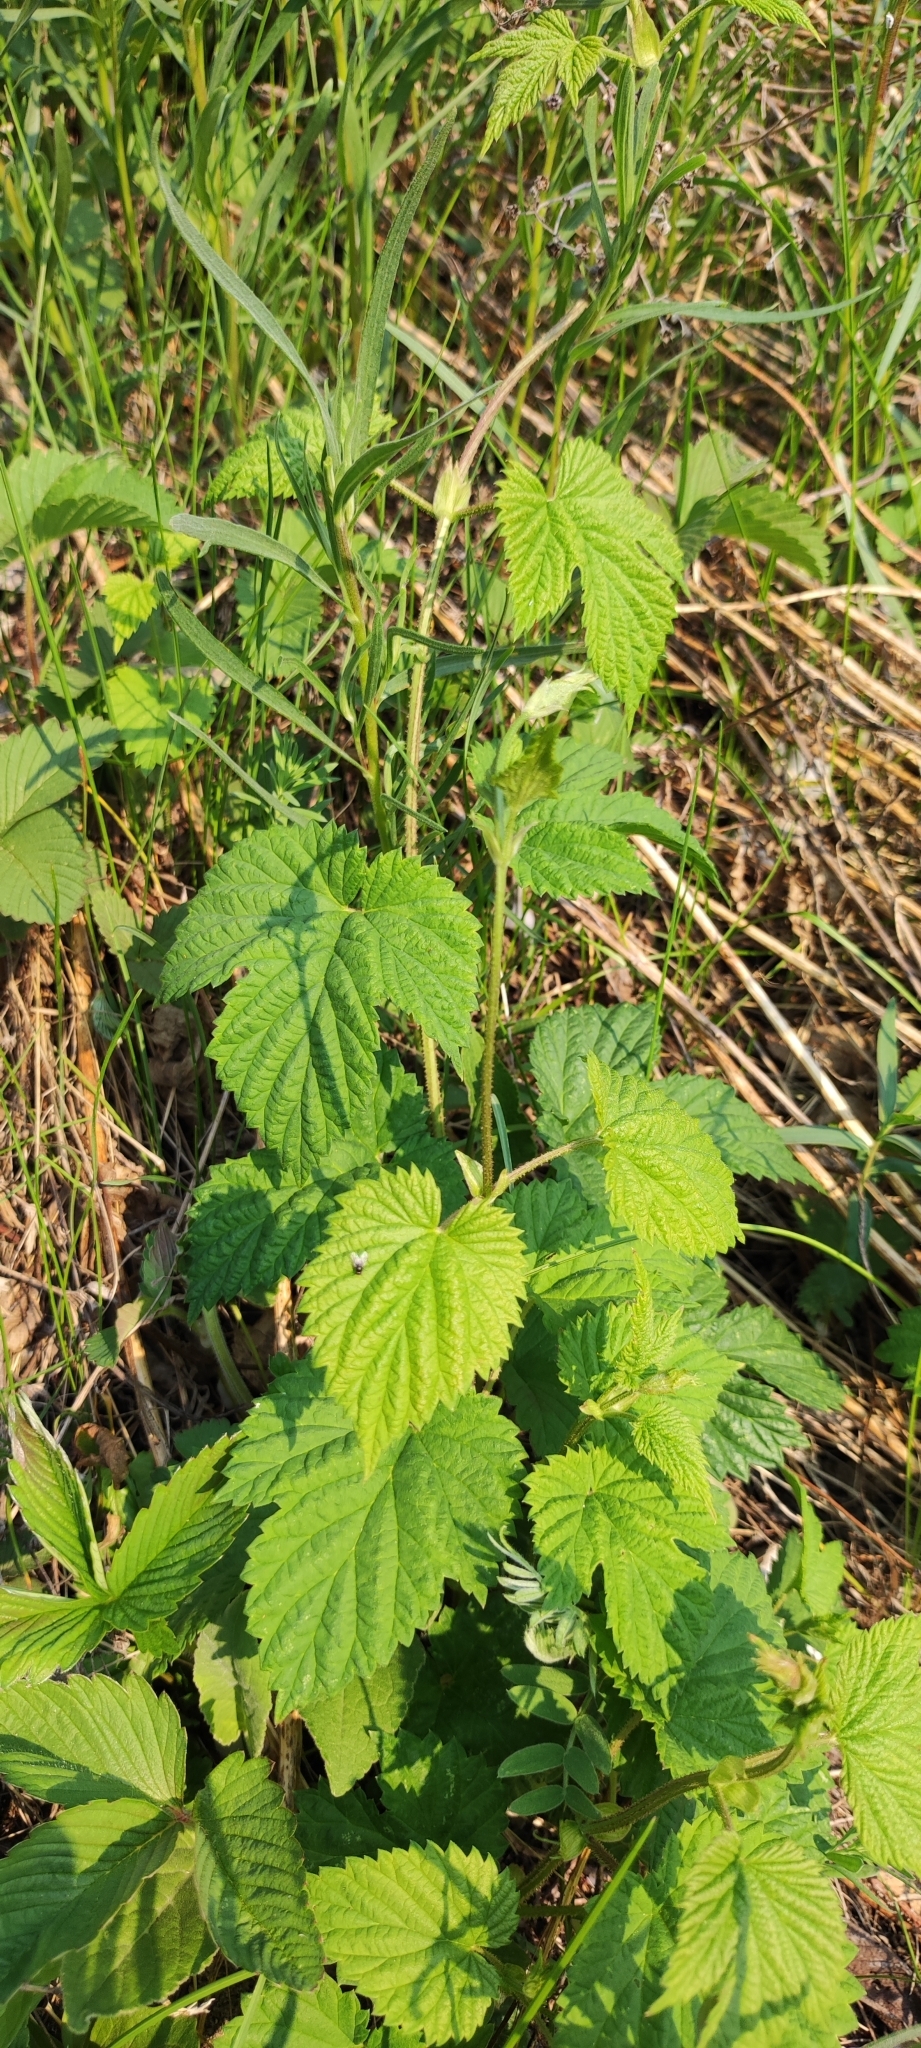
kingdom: Plantae
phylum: Tracheophyta
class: Magnoliopsida
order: Rosales
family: Cannabaceae
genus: Humulus
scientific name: Humulus lupulus
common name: Hop
